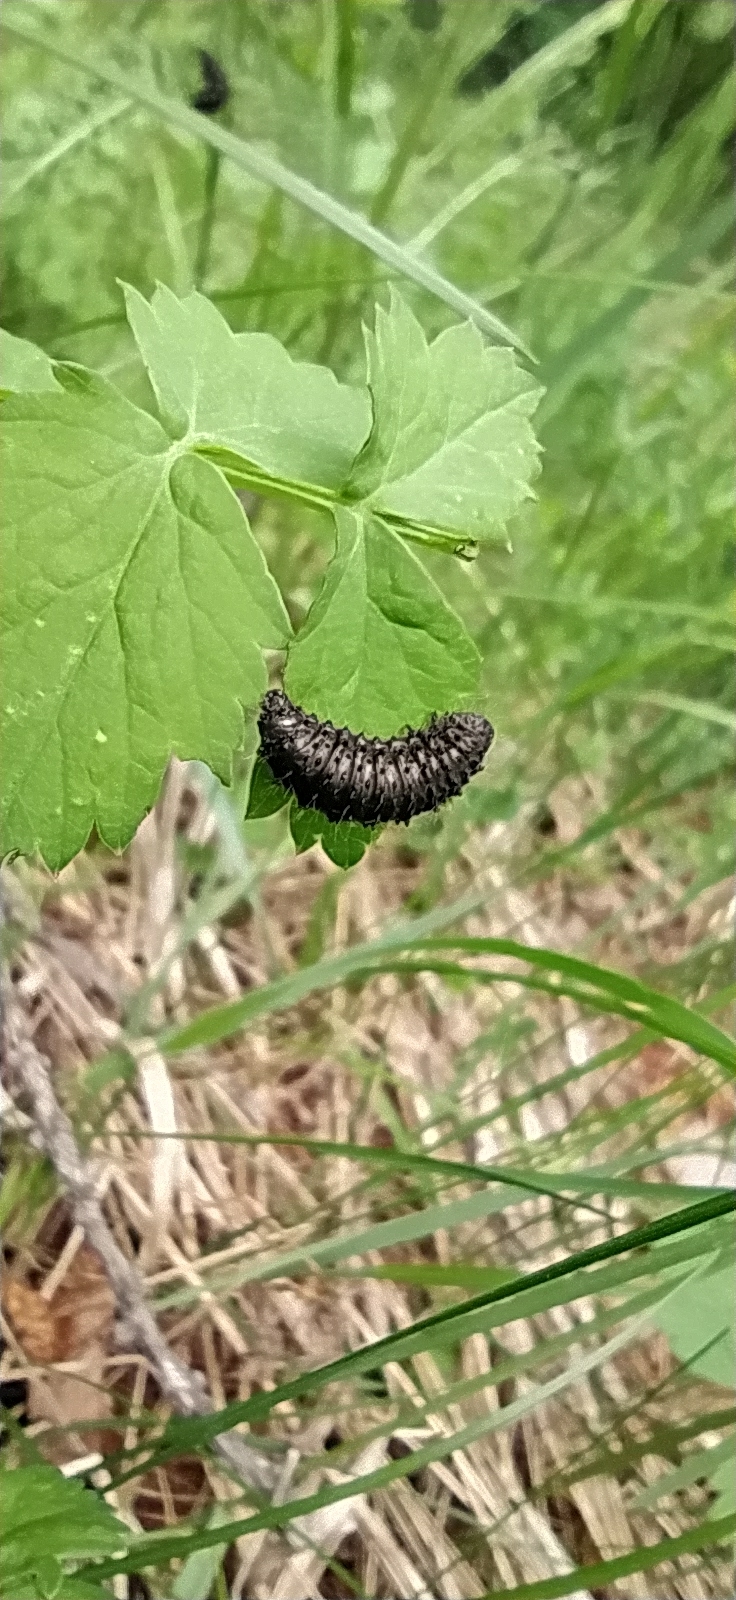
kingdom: Animalia
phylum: Arthropoda
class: Insecta
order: Coleoptera
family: Chrysomelidae
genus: Galeruca
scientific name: Galeruca tanaceti
